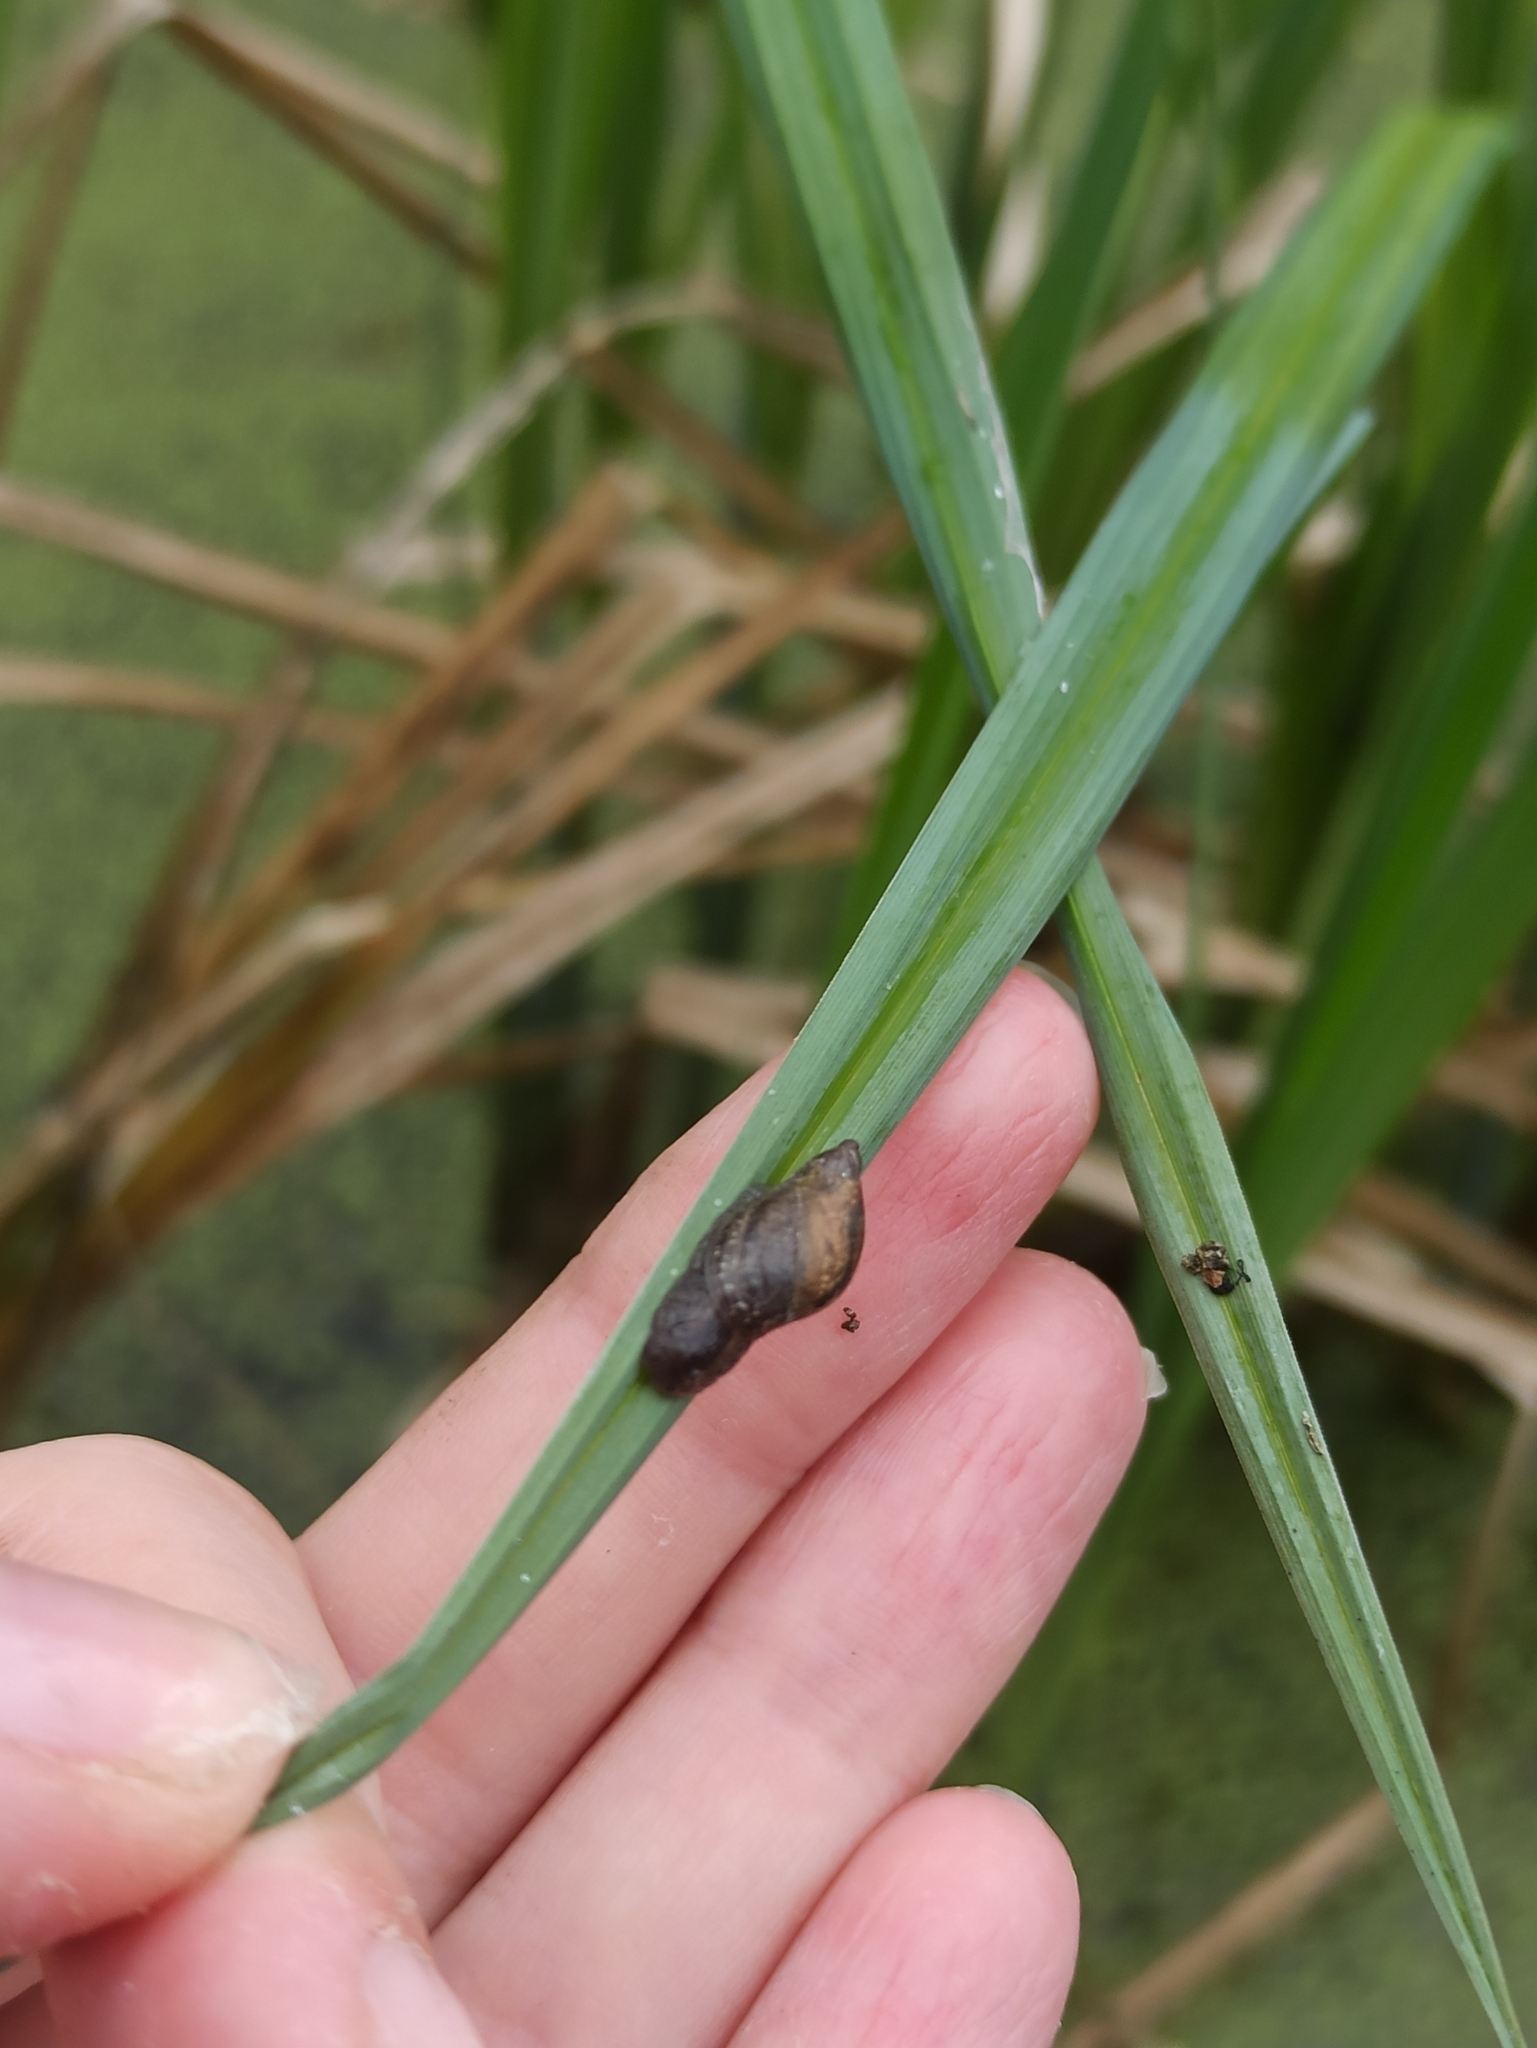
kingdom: Animalia
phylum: Mollusca
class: Gastropoda
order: Stylommatophora
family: Succineidae
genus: Succinea
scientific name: Succinea putris
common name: European ambersnail
